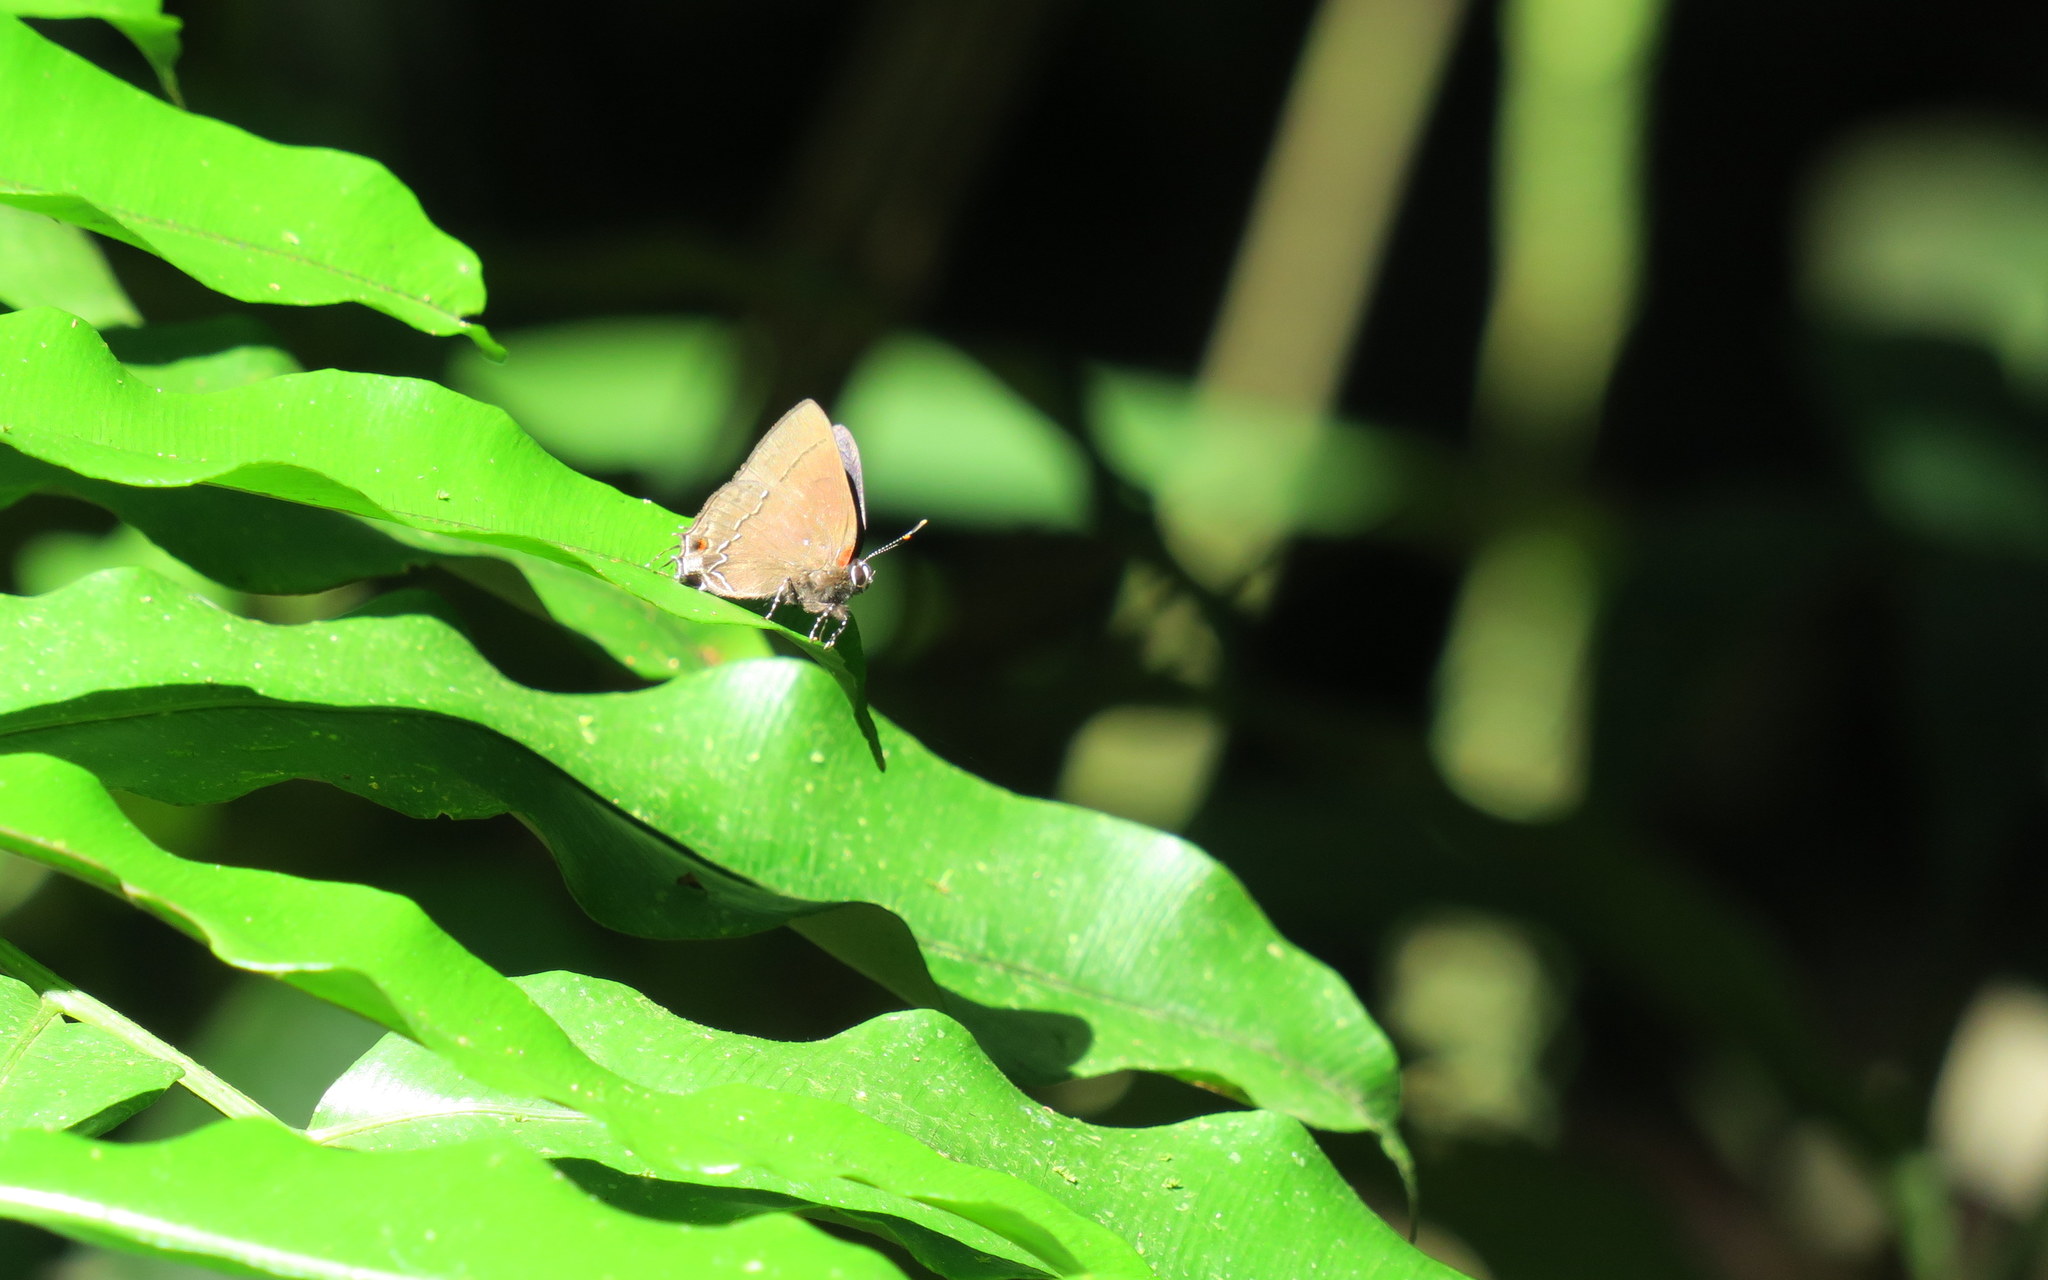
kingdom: Animalia
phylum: Arthropoda
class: Insecta
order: Lepidoptera
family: Lycaenidae
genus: Arumecla
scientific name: Arumecla
